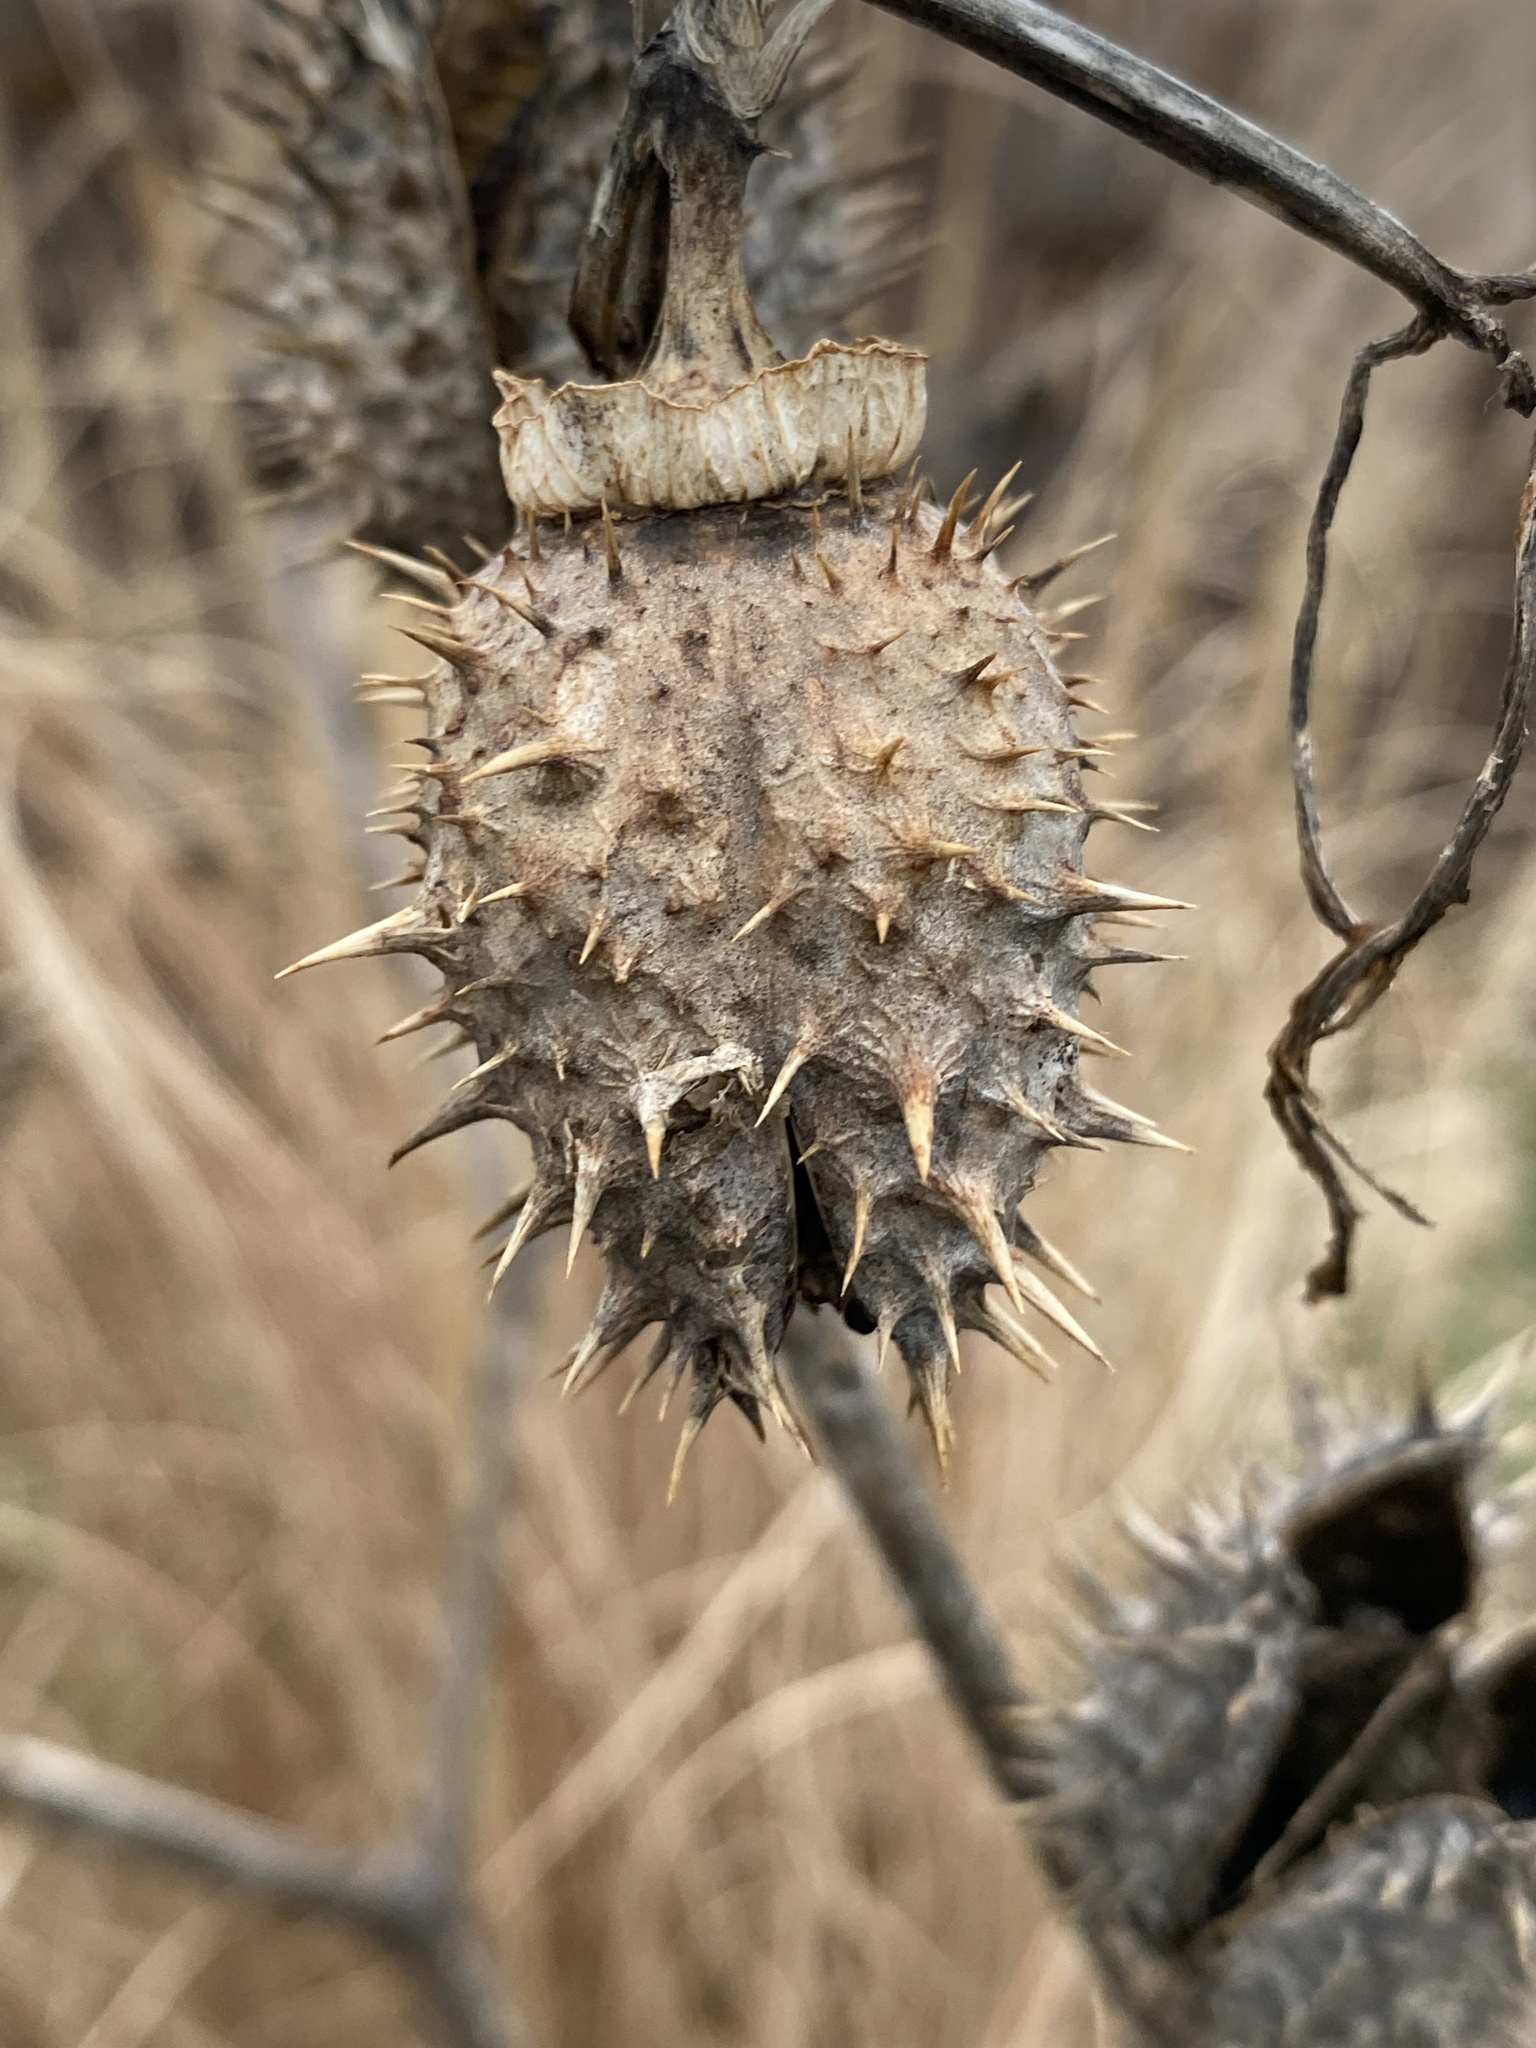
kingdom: Plantae
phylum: Tracheophyta
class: Magnoliopsida
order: Solanales
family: Solanaceae
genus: Datura
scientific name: Datura stramonium
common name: Thorn-apple
